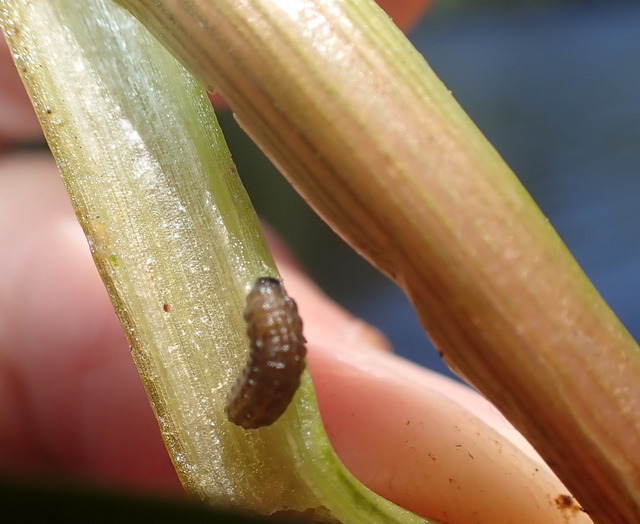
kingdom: Animalia
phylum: Arthropoda
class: Insecta
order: Coleoptera
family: Chrysomelidae
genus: Agasicles
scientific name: Agasicles hygrophila
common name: Alligatorweed flea beetle
